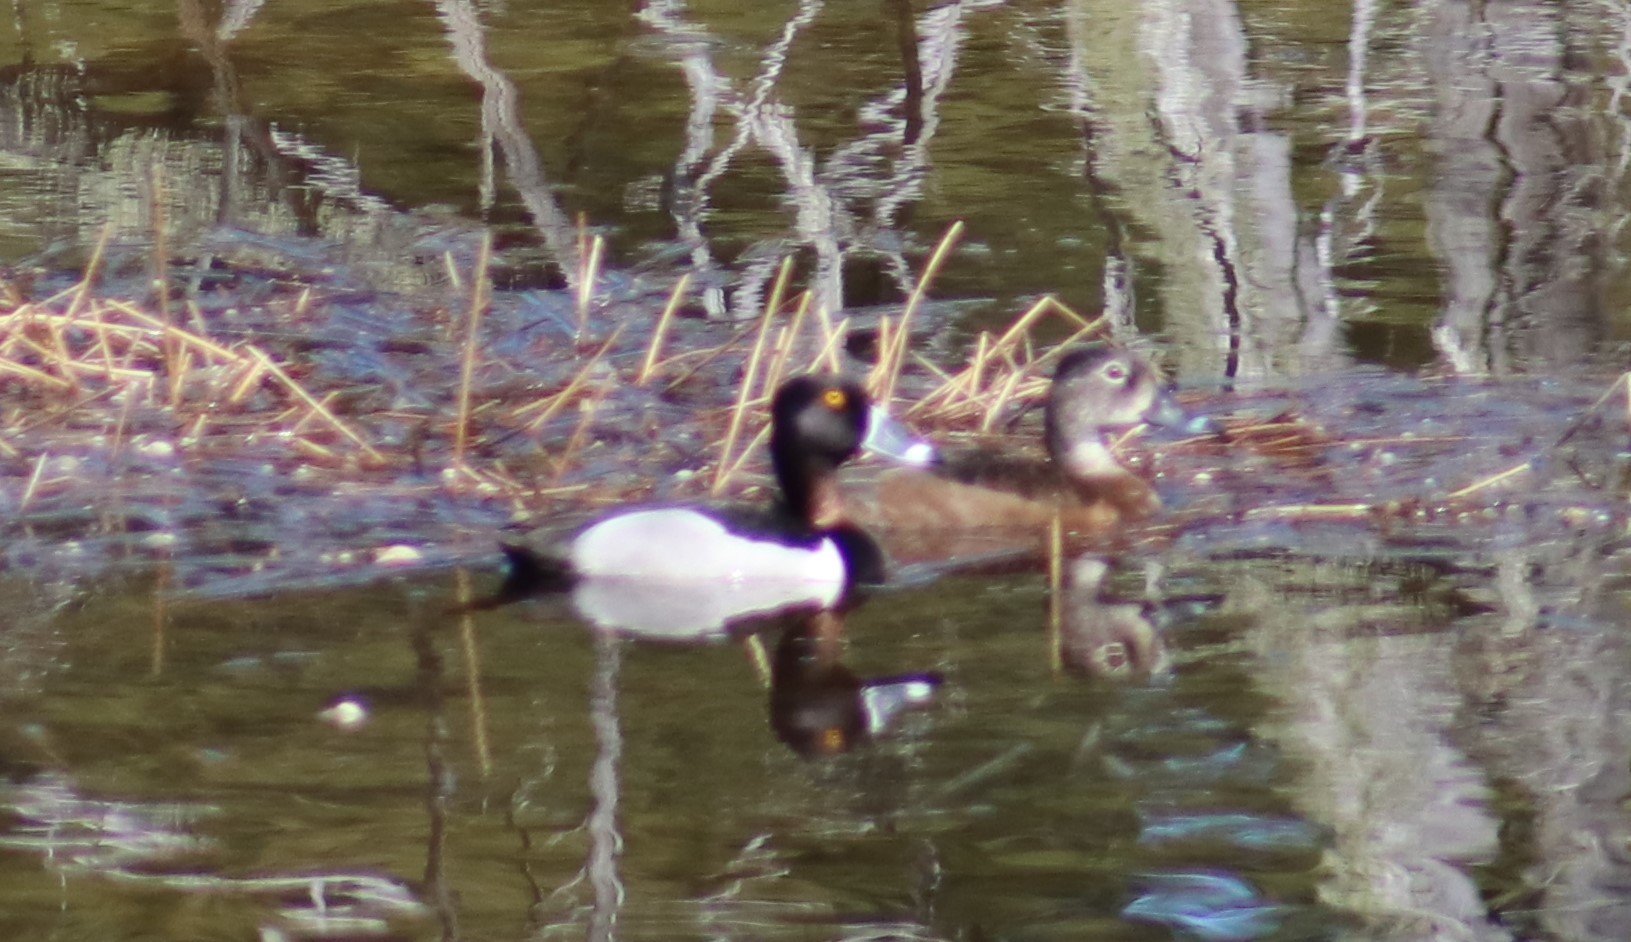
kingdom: Animalia
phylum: Chordata
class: Aves
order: Anseriformes
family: Anatidae
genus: Aythya
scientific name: Aythya collaris
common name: Ring-necked duck
